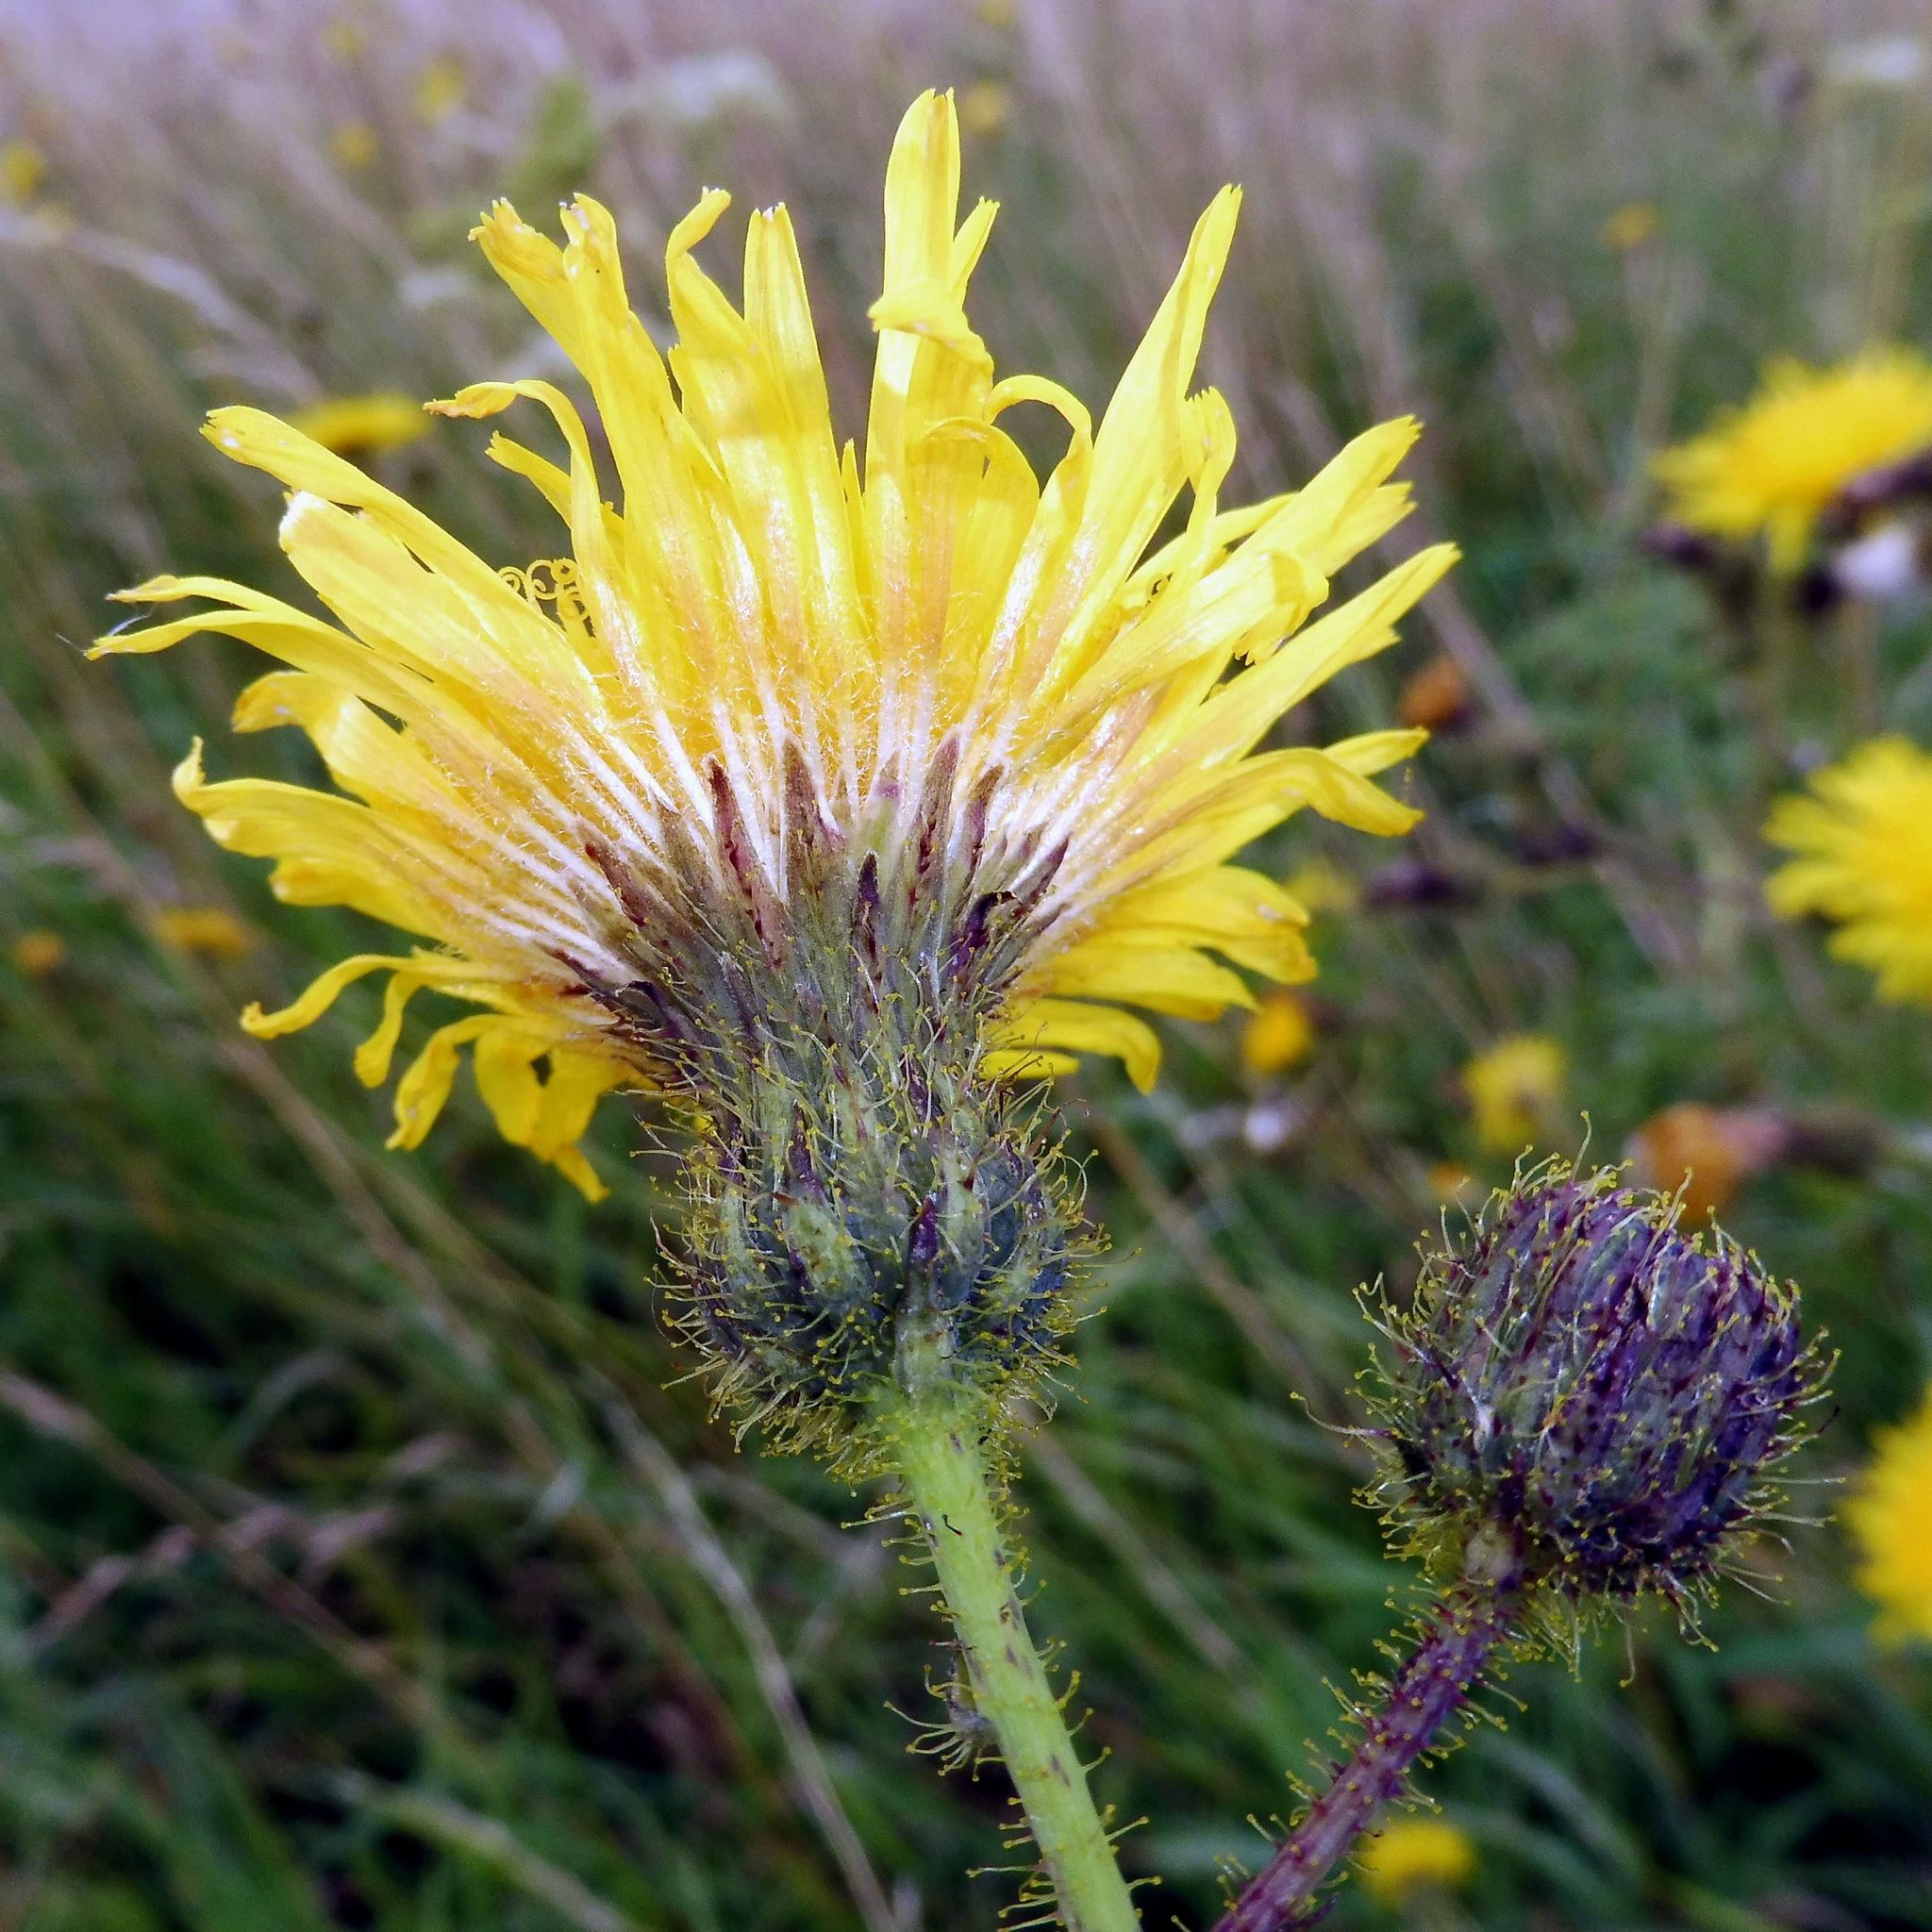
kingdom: Plantae
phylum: Tracheophyta
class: Magnoliopsida
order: Asterales
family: Asteraceae
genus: Sonchus
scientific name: Sonchus arvensis
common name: Perennial sow-thistle
